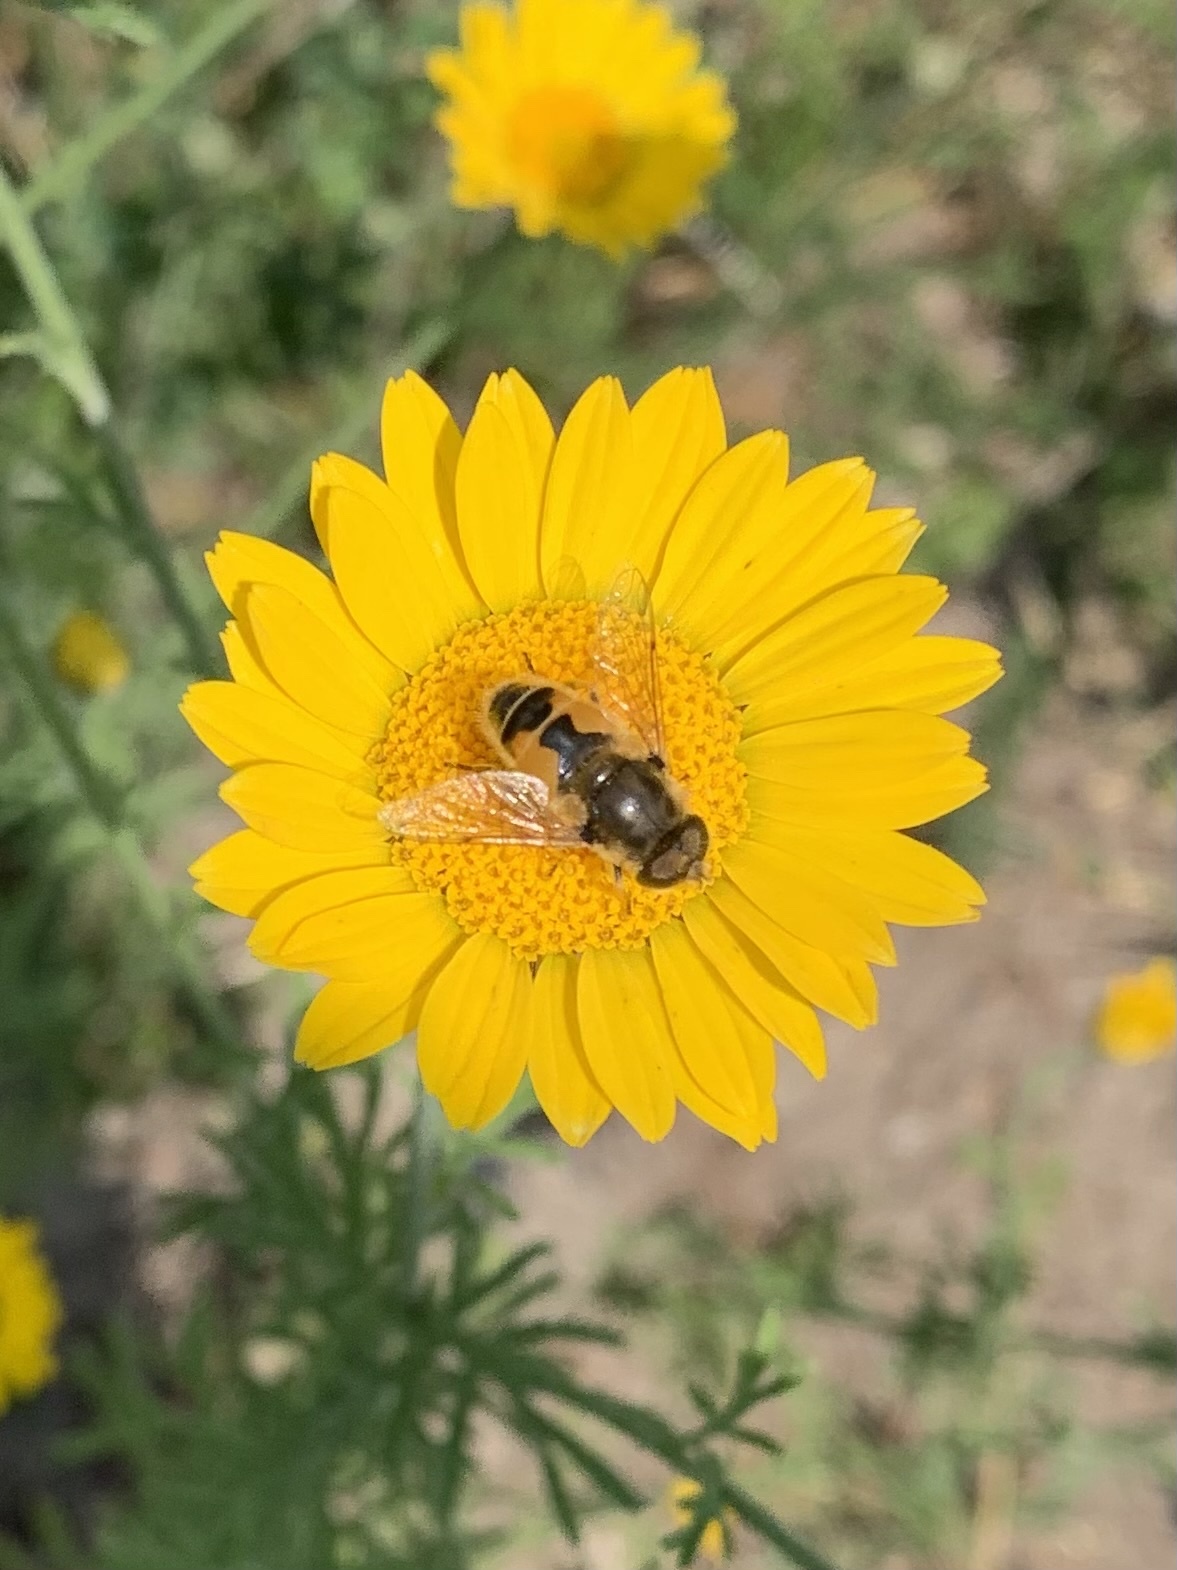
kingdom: Animalia
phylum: Arthropoda
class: Insecta
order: Diptera
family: Syrphidae
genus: Eristalis
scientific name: Eristalis arbustorum
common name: Hover fly
